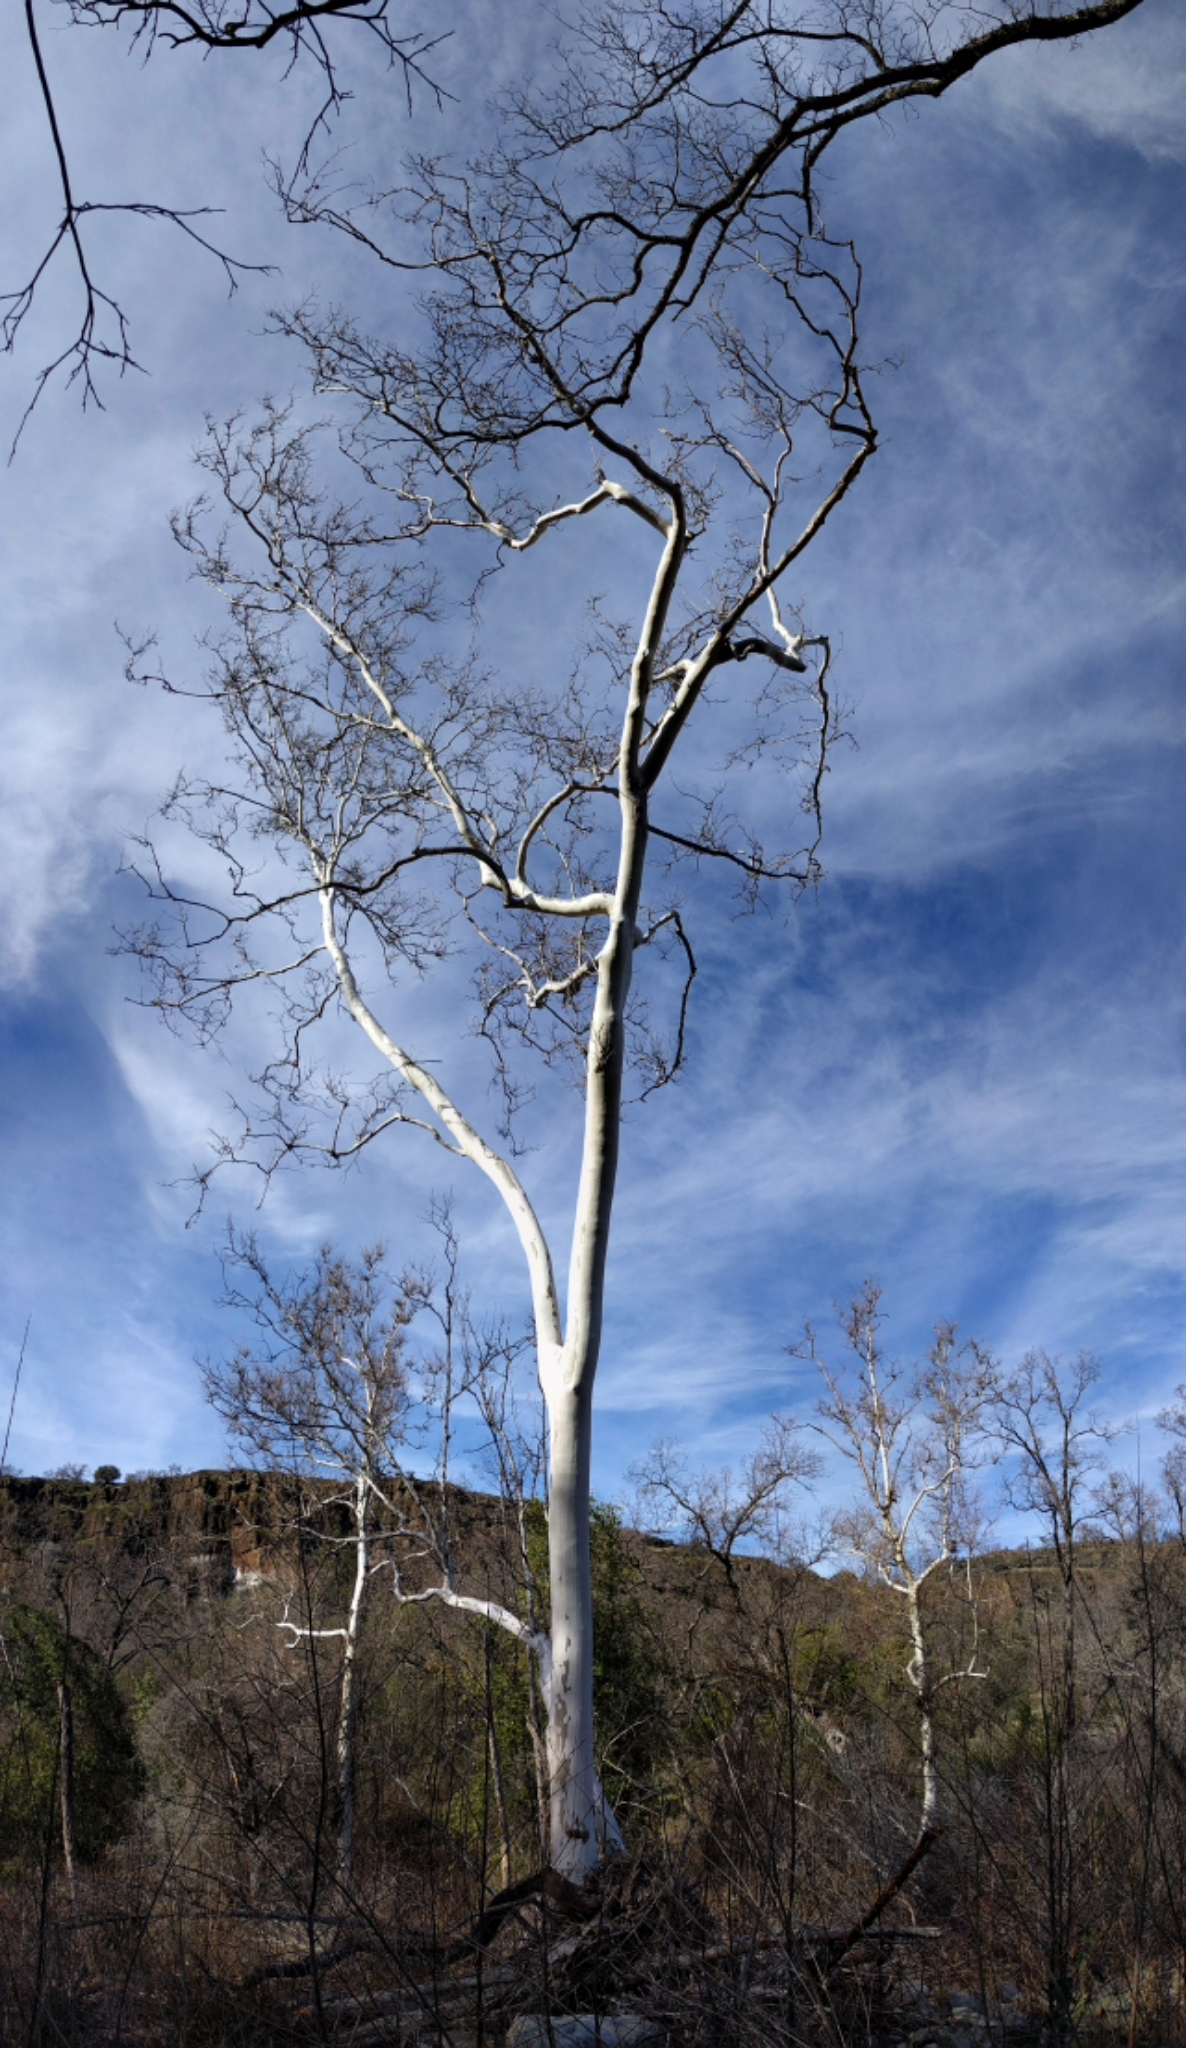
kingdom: Plantae
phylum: Tracheophyta
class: Magnoliopsida
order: Proteales
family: Platanaceae
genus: Platanus
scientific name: Platanus racemosa
